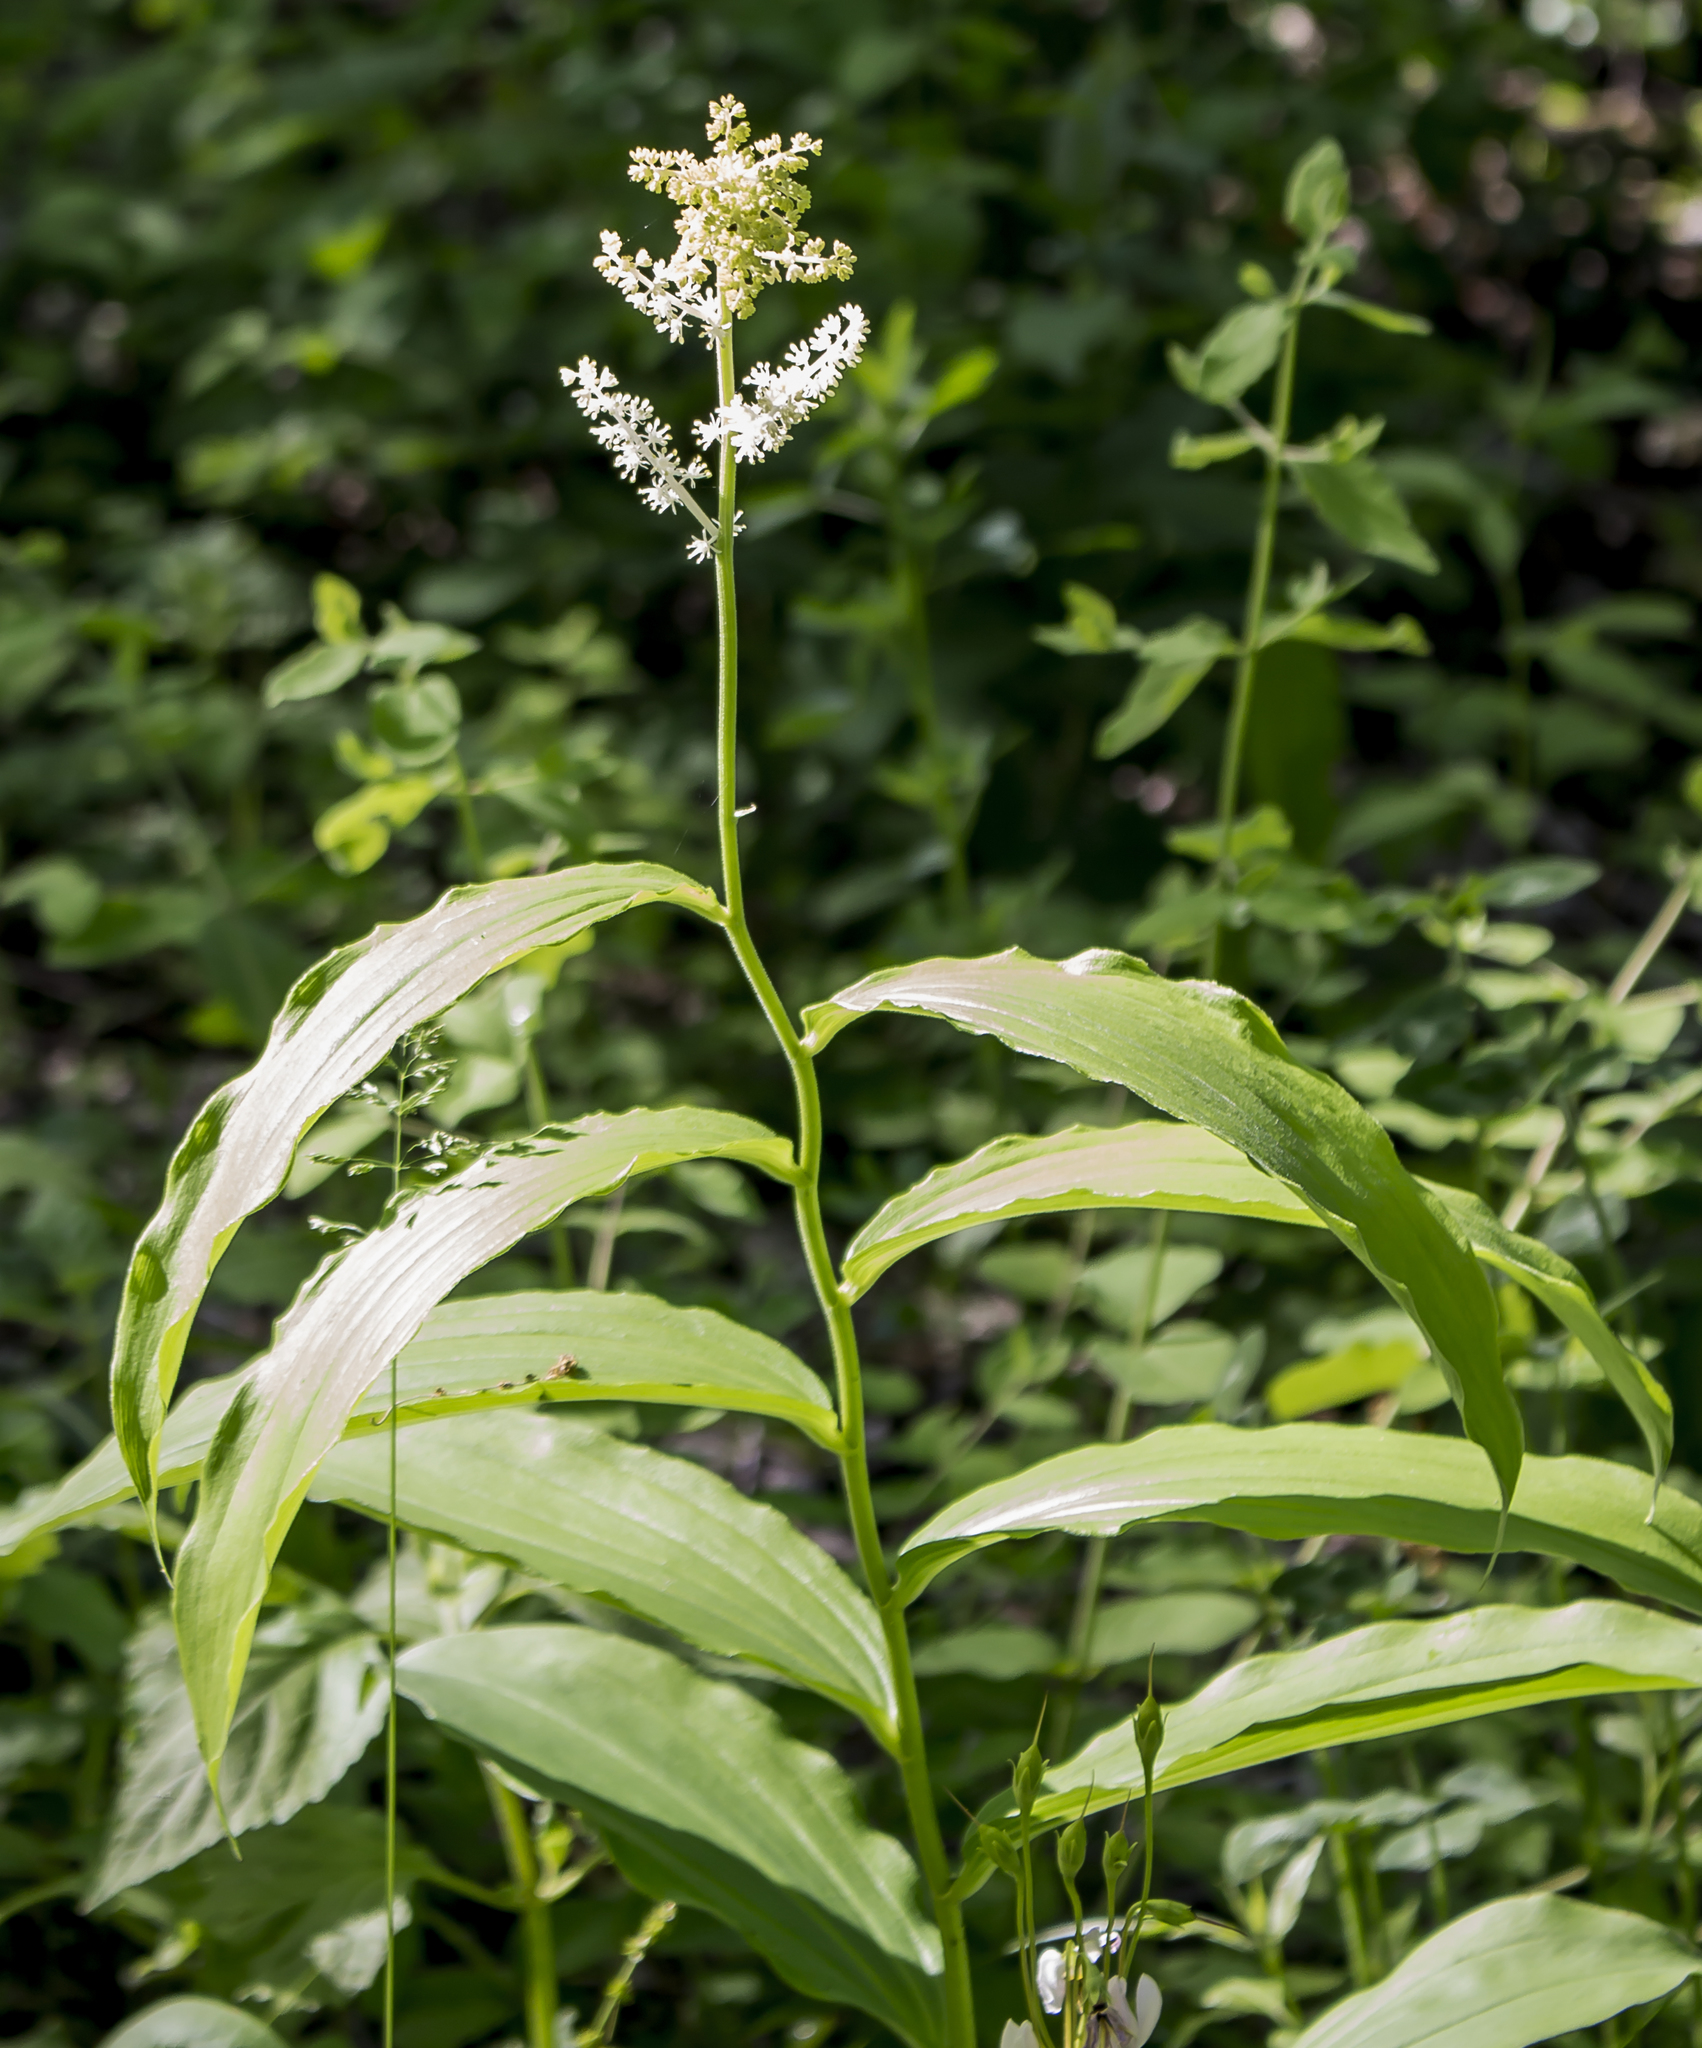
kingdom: Plantae
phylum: Tracheophyta
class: Liliopsida
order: Asparagales
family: Asparagaceae
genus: Maianthemum
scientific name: Maianthemum racemosum
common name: False spikenard
